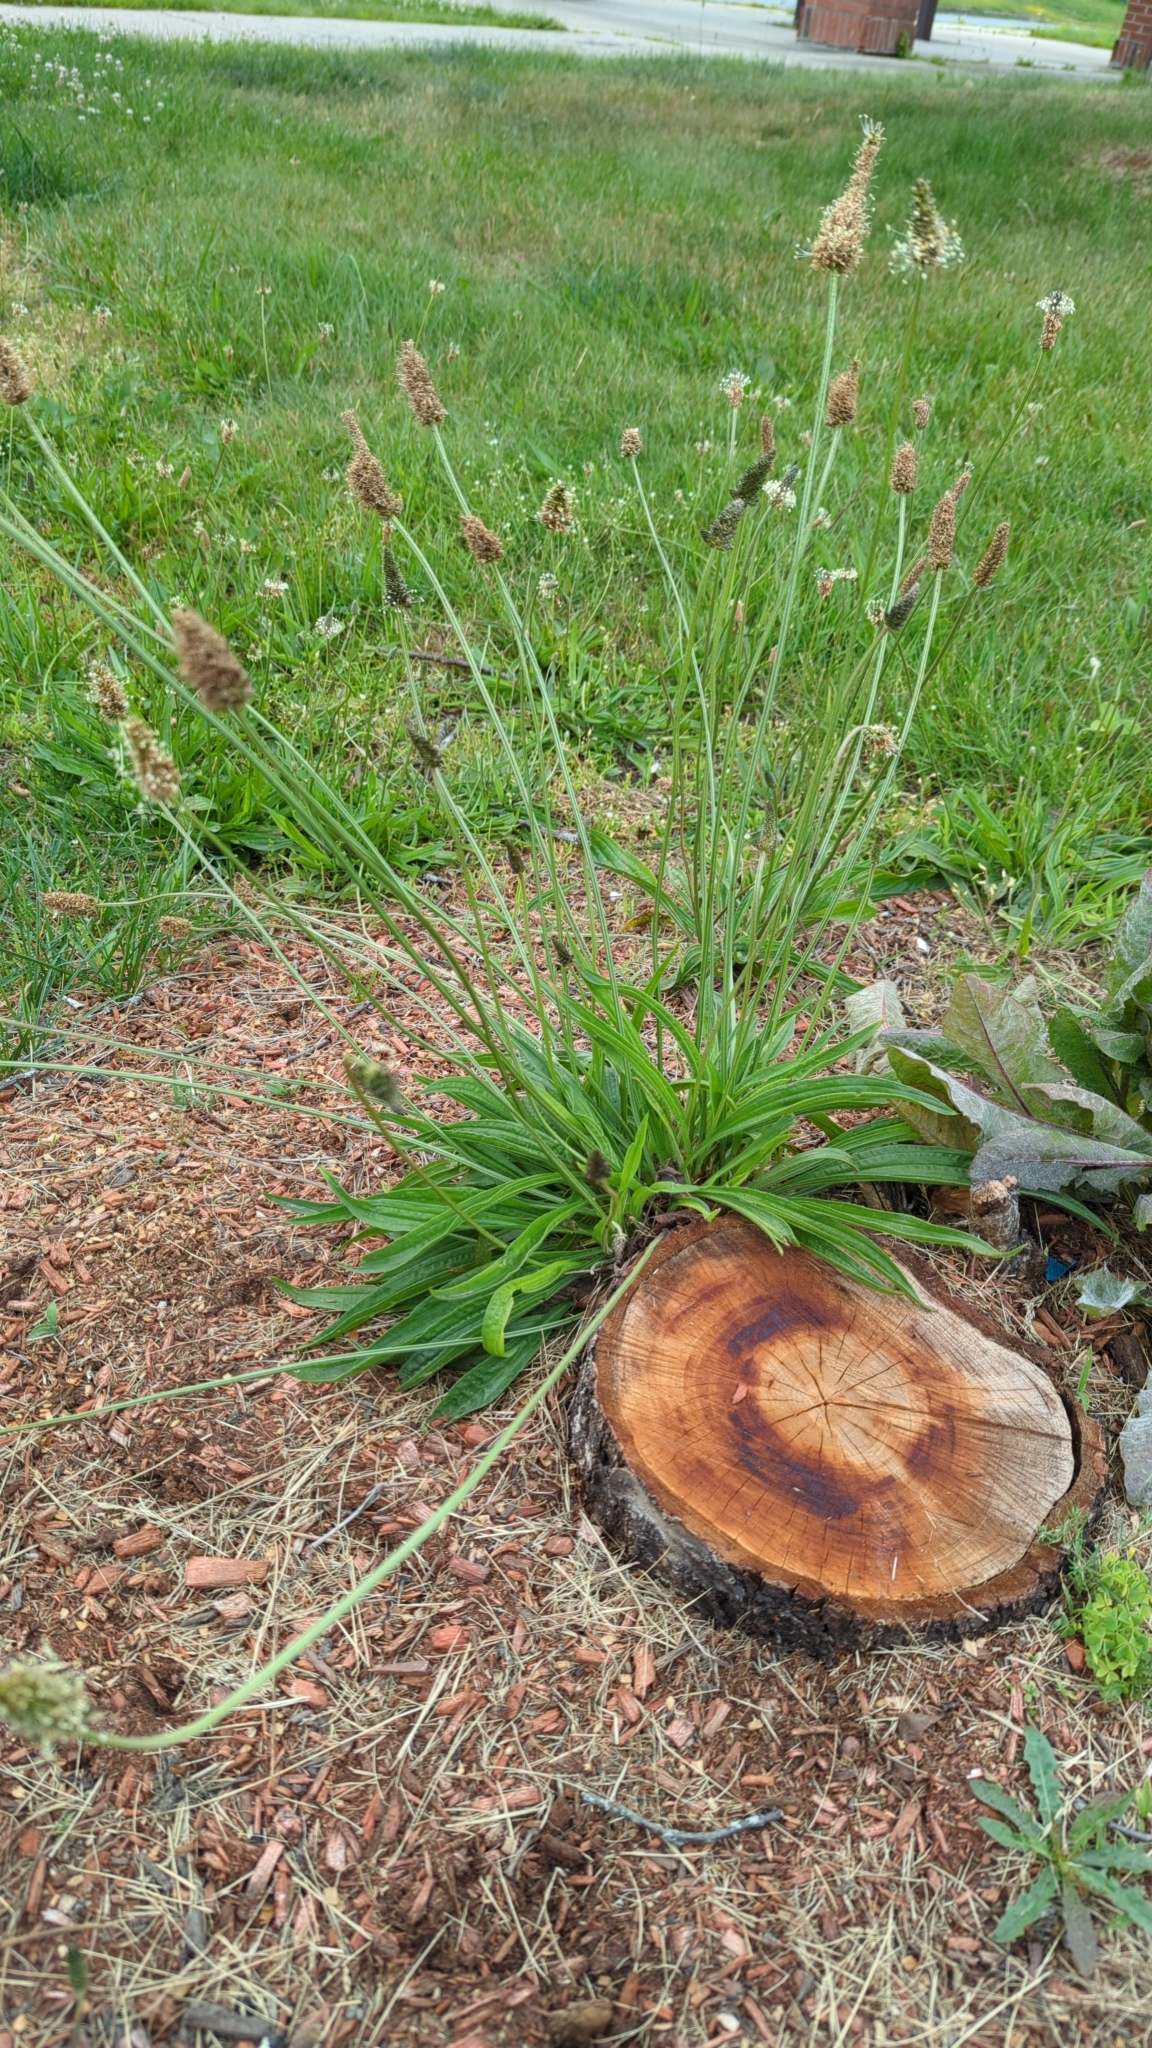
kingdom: Plantae
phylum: Tracheophyta
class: Magnoliopsida
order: Lamiales
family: Plantaginaceae
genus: Plantago
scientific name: Plantago lanceolata
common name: Ribwort plantain
